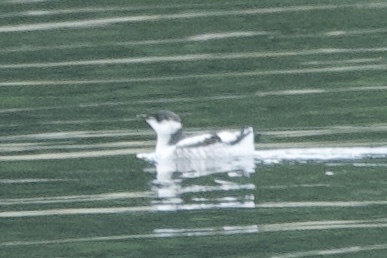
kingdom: Animalia
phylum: Chordata
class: Aves
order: Charadriiformes
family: Alcidae
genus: Brachyramphus
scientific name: Brachyramphus marmoratus
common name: Marbled murrelet
